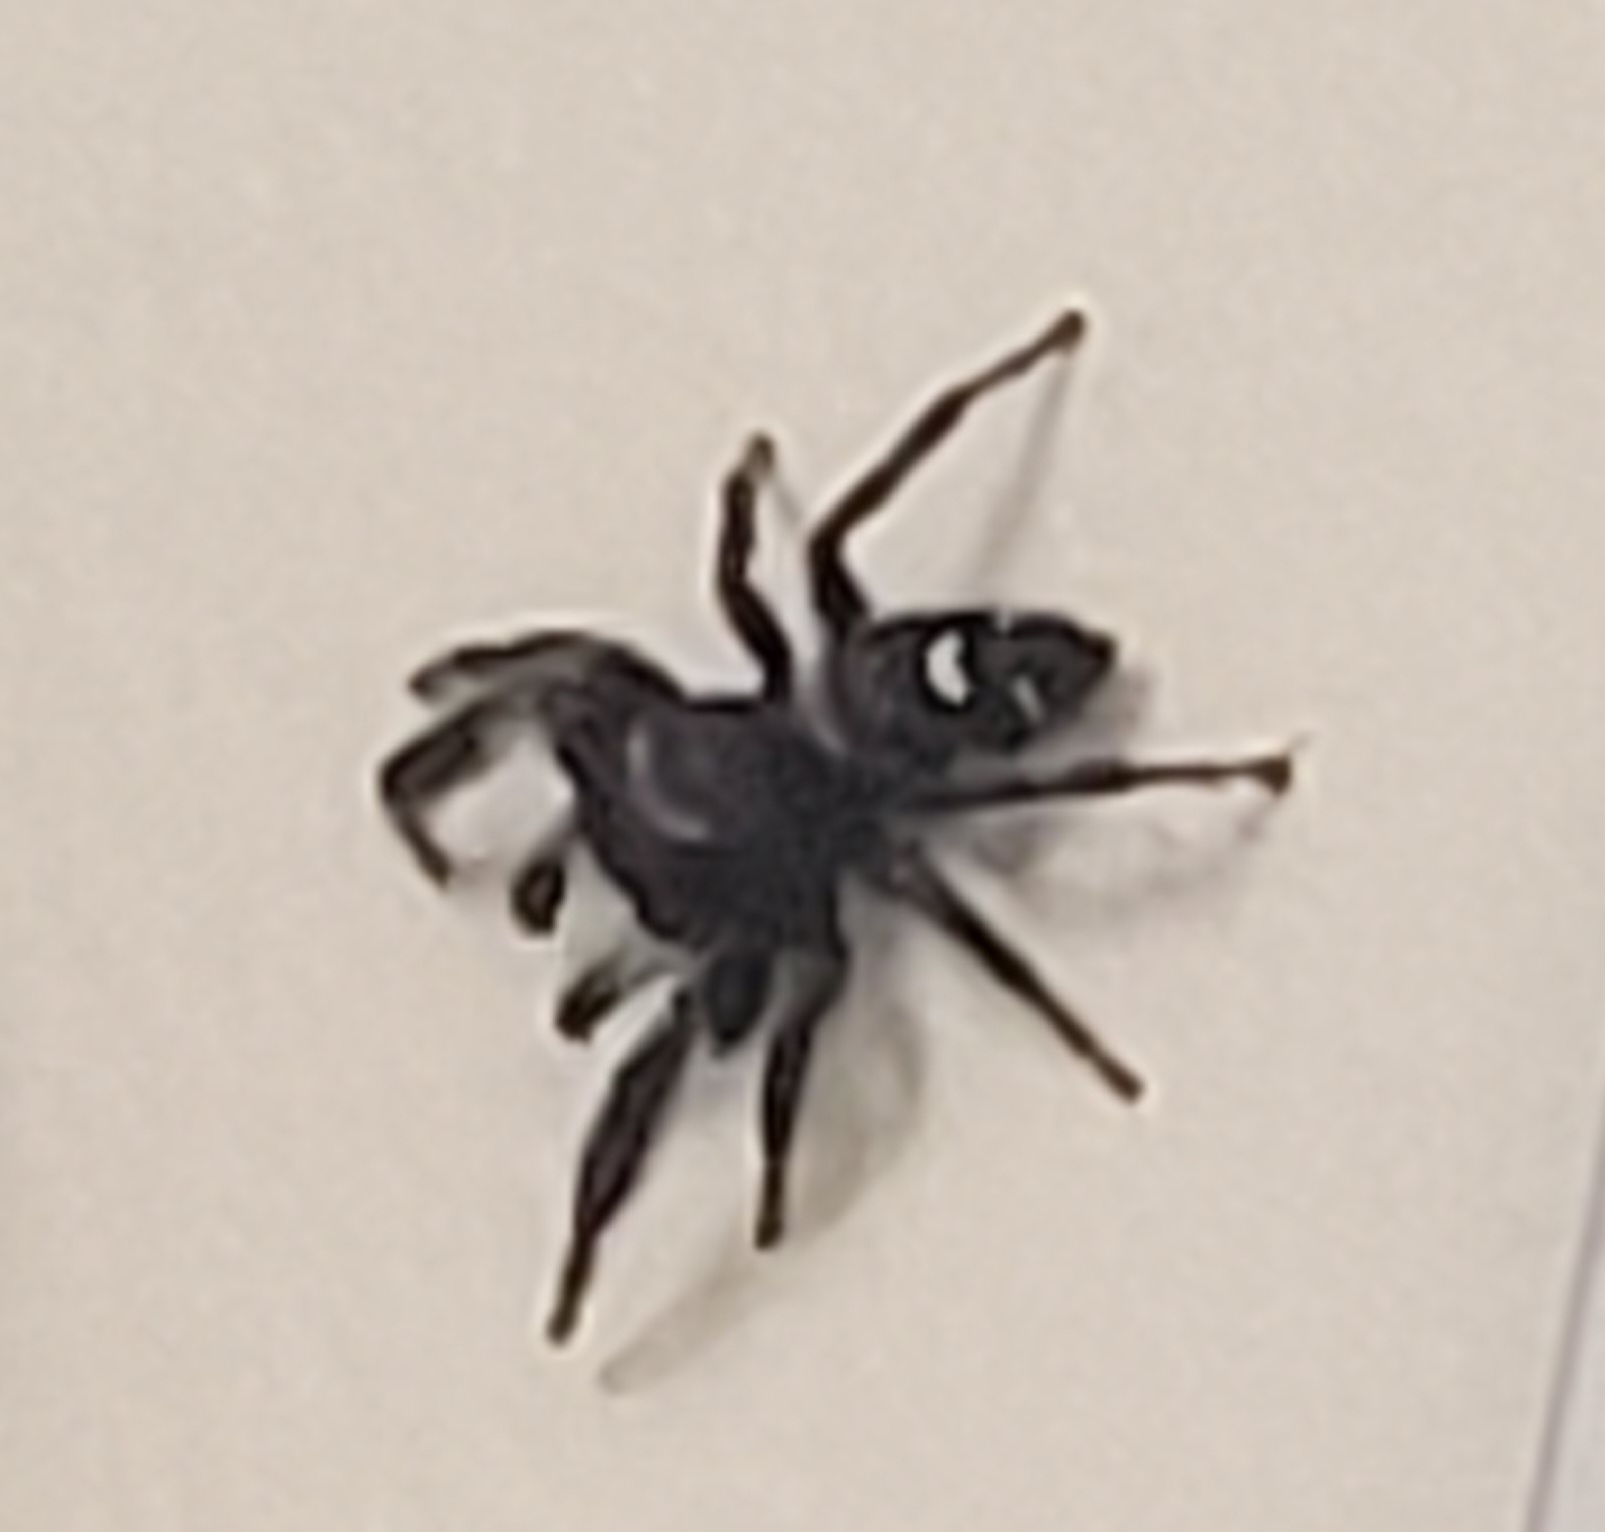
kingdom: Animalia
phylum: Arthropoda
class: Arachnida
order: Araneae
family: Salticidae
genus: Phidippus
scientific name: Phidippus audax
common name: Bold jumper
